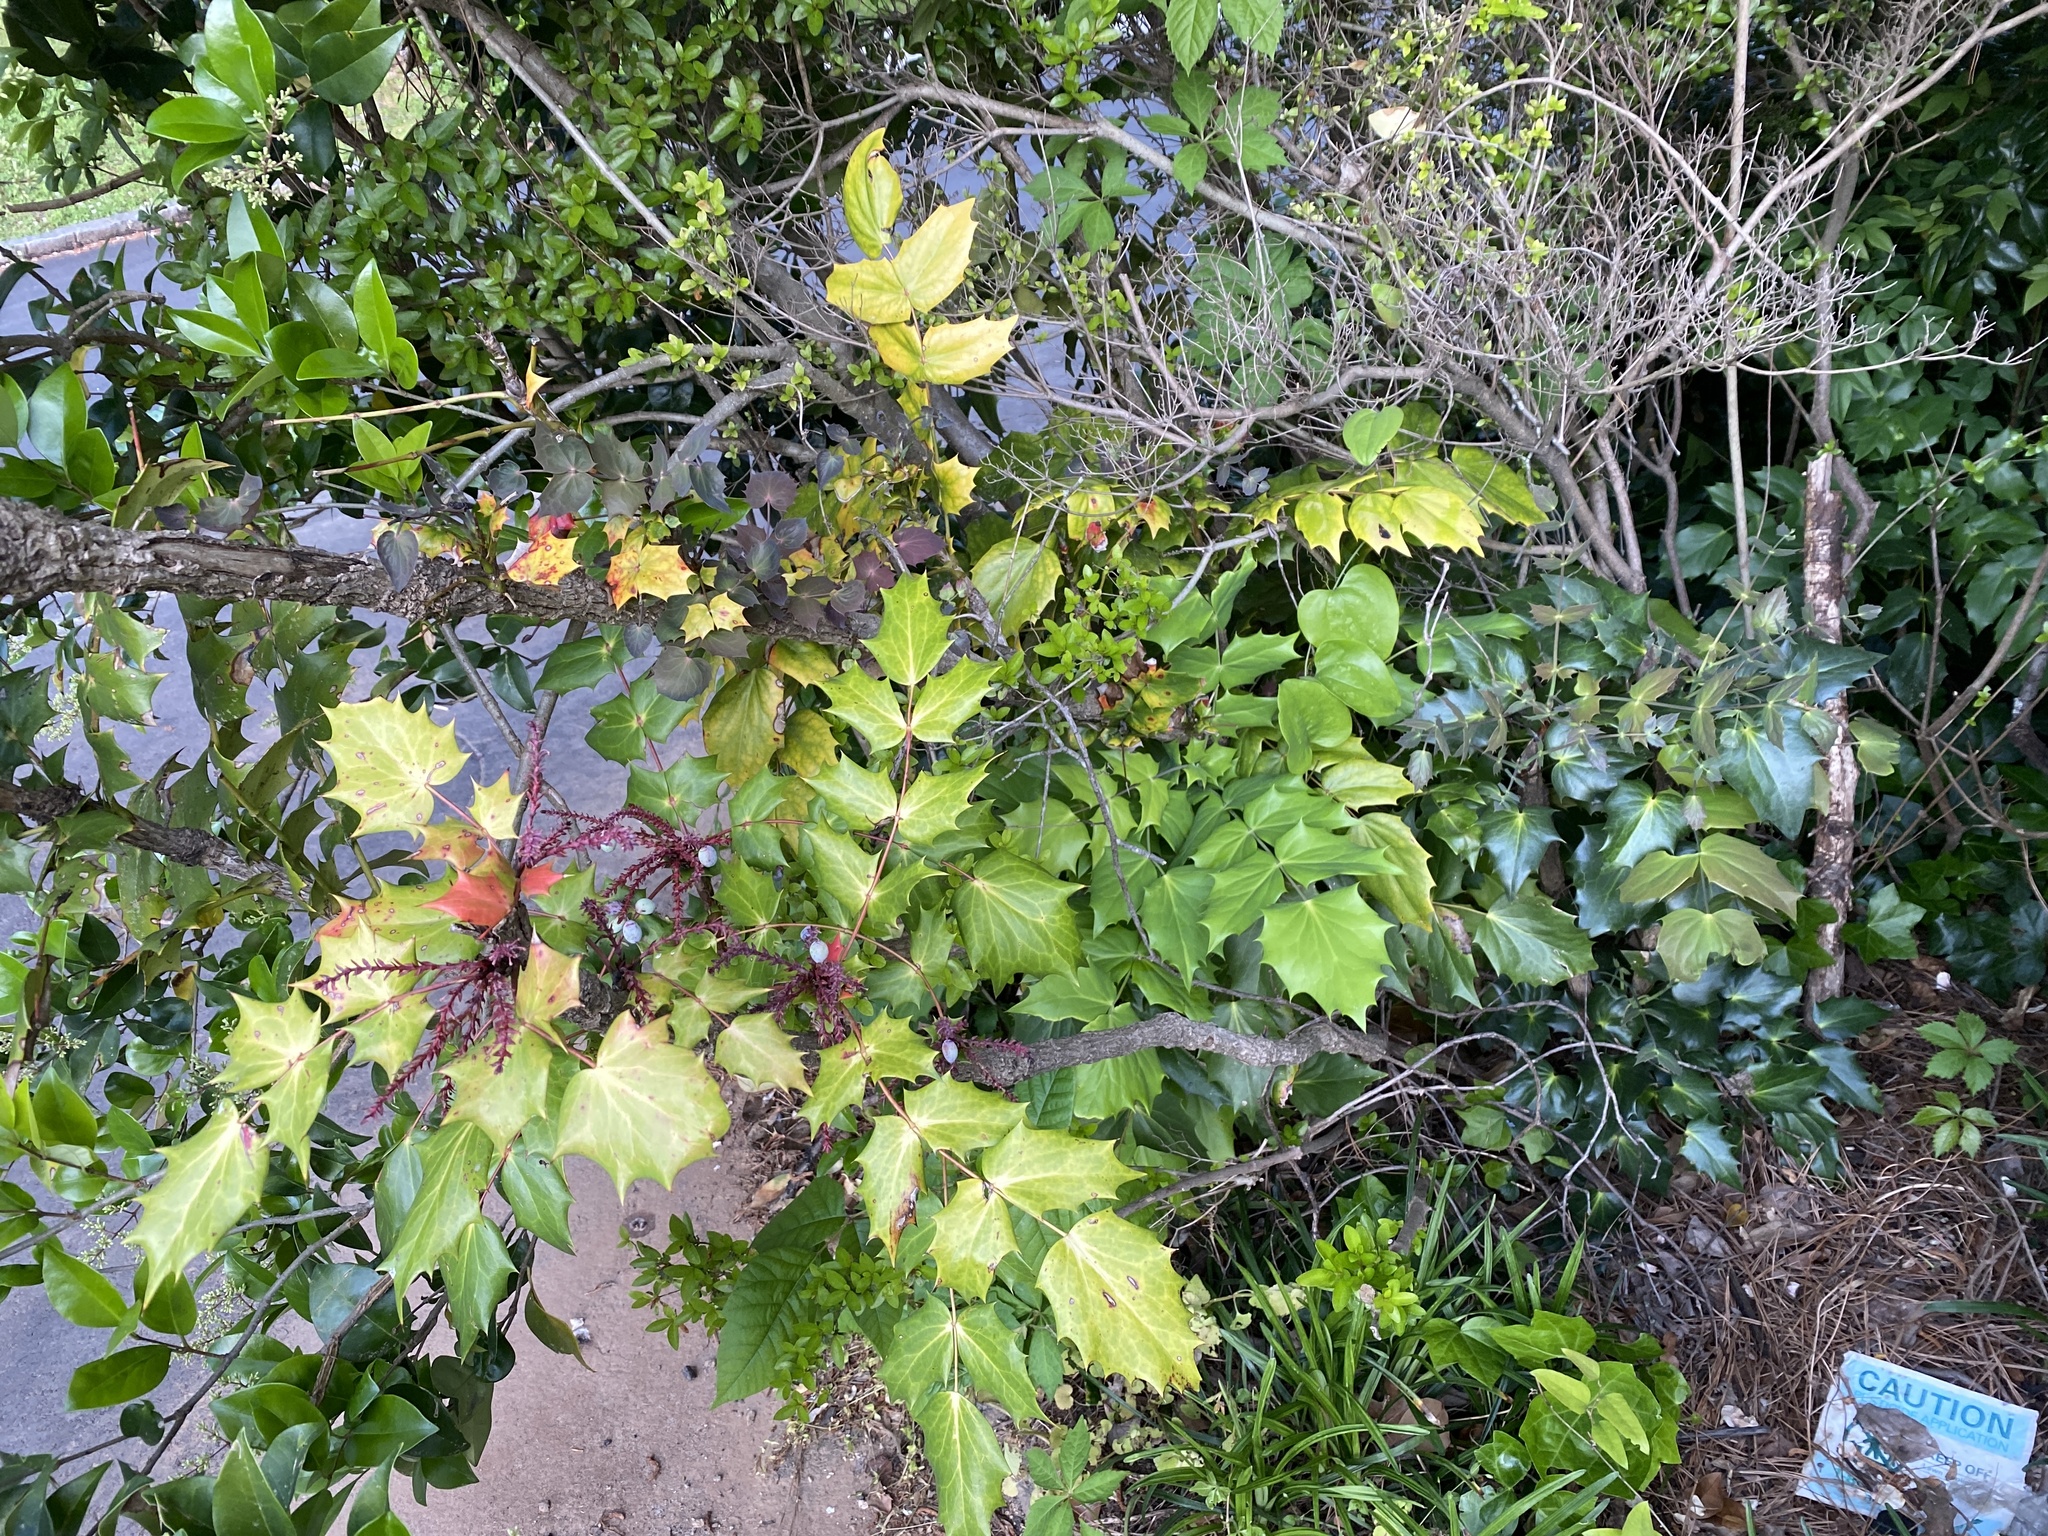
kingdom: Plantae
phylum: Tracheophyta
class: Magnoliopsida
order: Ranunculales
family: Berberidaceae
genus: Mahonia
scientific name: Mahonia bealei
